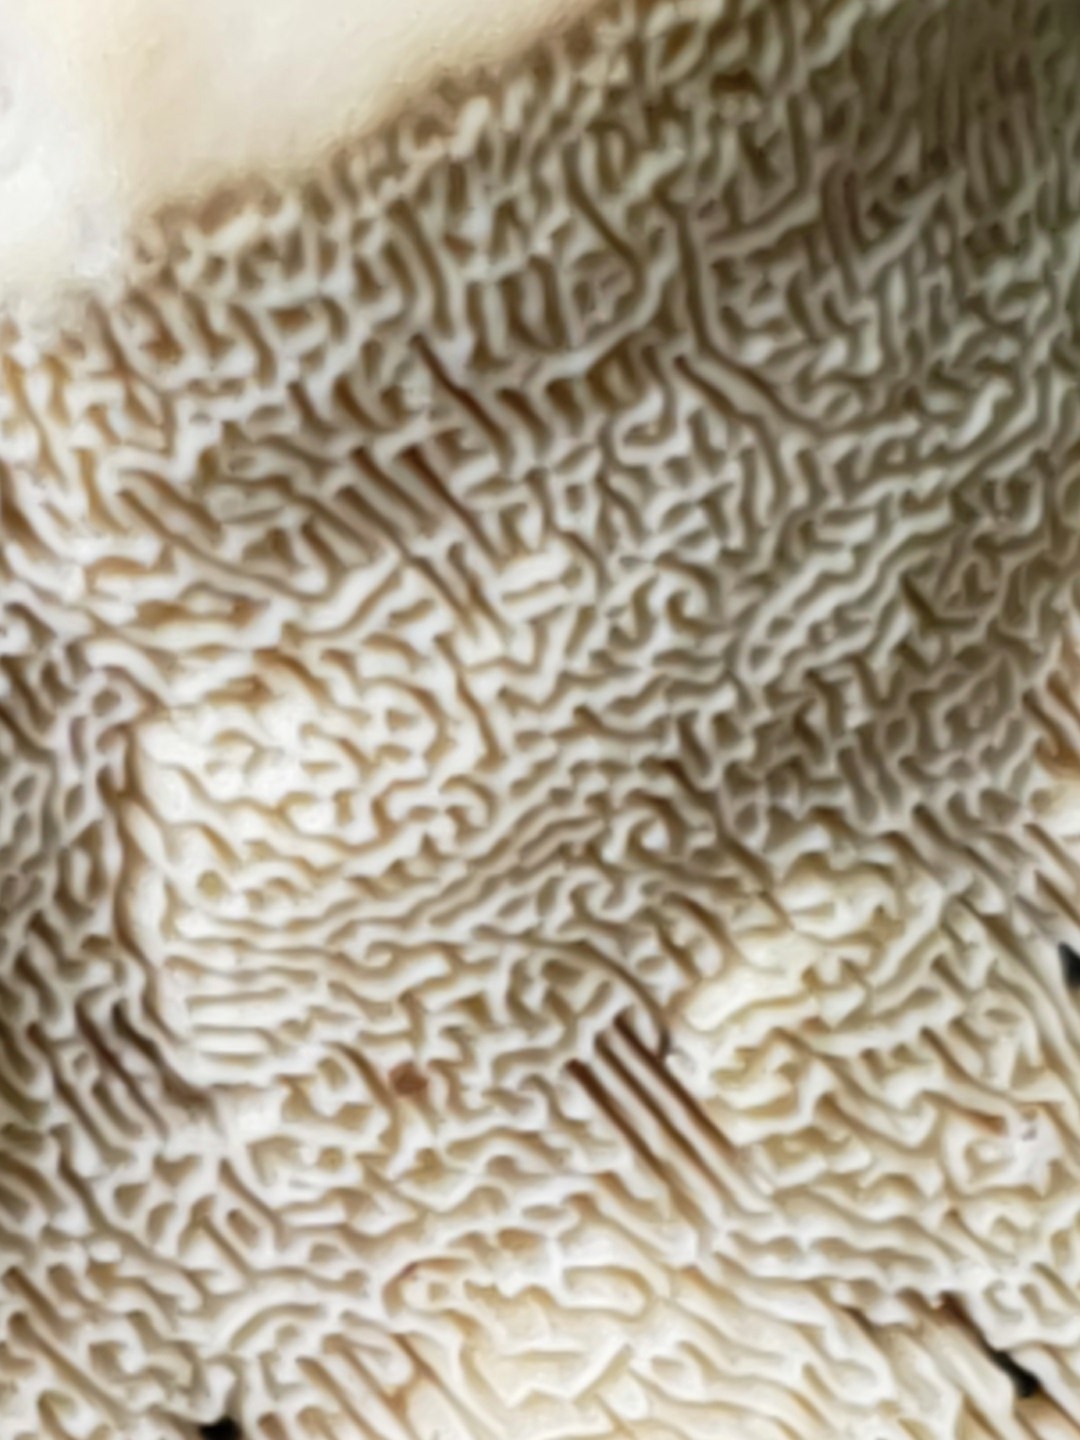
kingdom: Fungi
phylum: Basidiomycota
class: Agaricomycetes
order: Polyporales
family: Fomitopsidaceae
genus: Fomitopsis
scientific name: Fomitopsis
